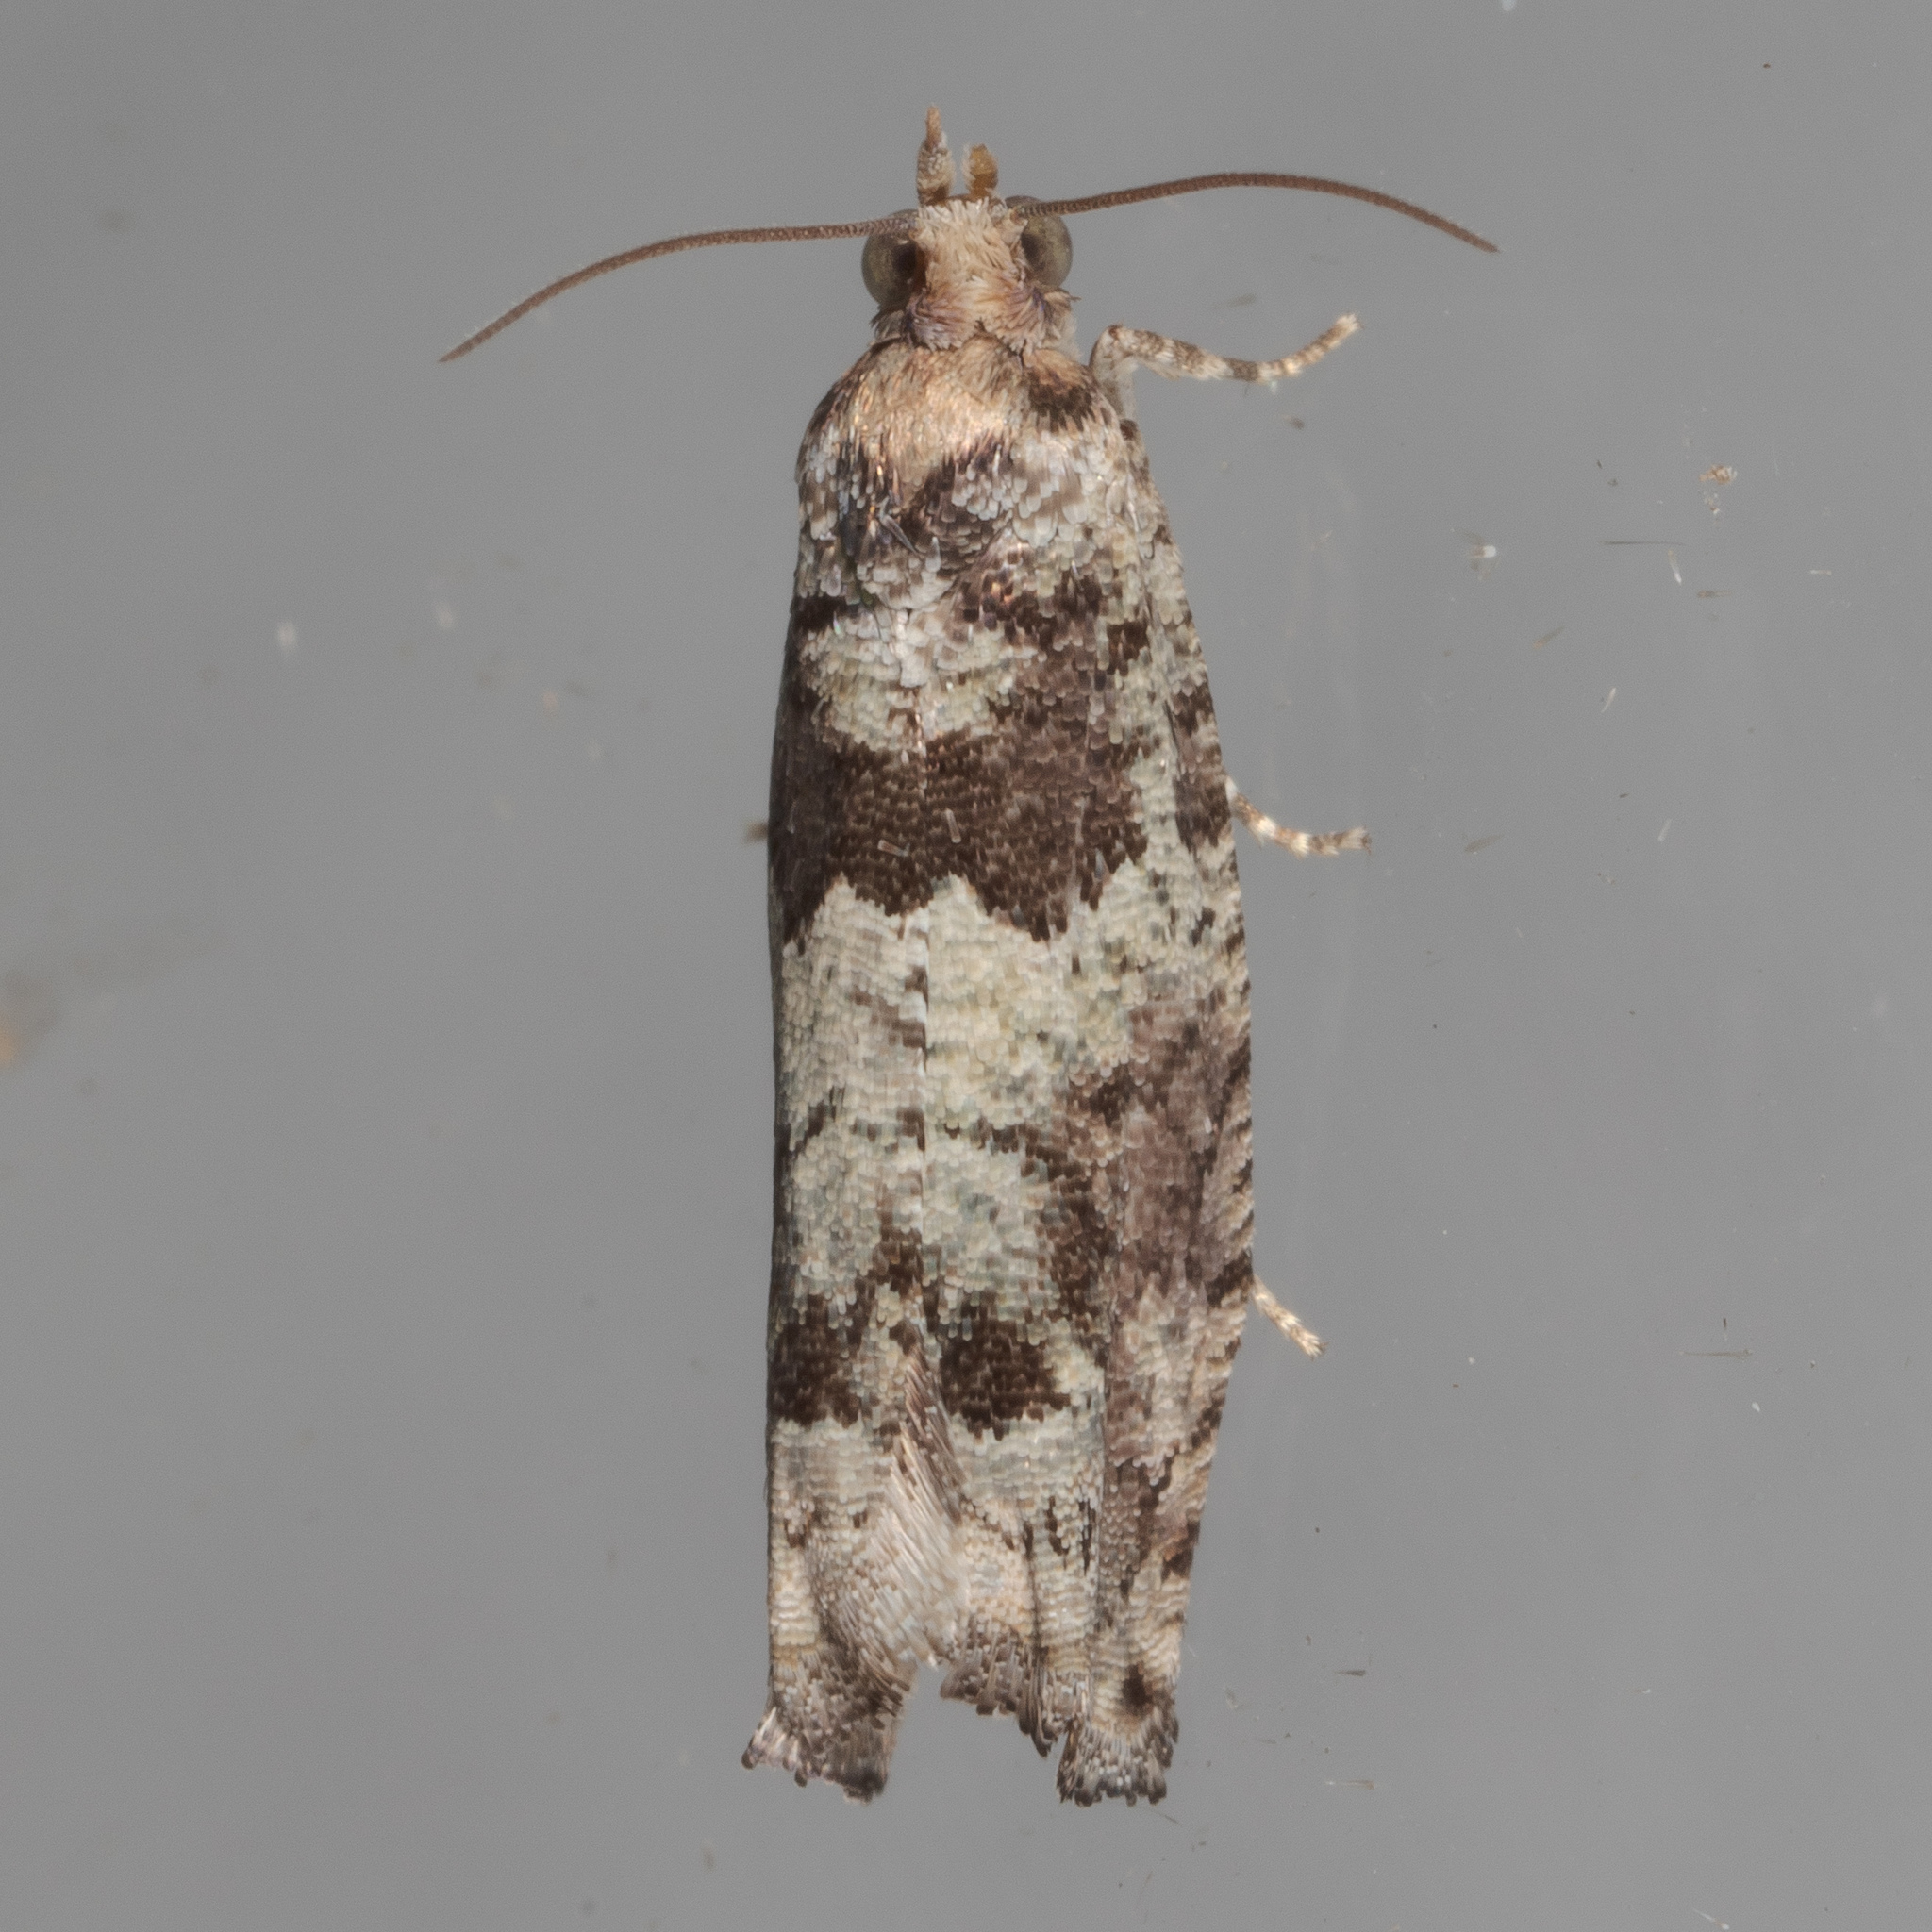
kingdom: Animalia
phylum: Arthropoda
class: Insecta
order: Lepidoptera
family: Tortricidae
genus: Pseudexentera
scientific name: Pseudexentera knudsoni
